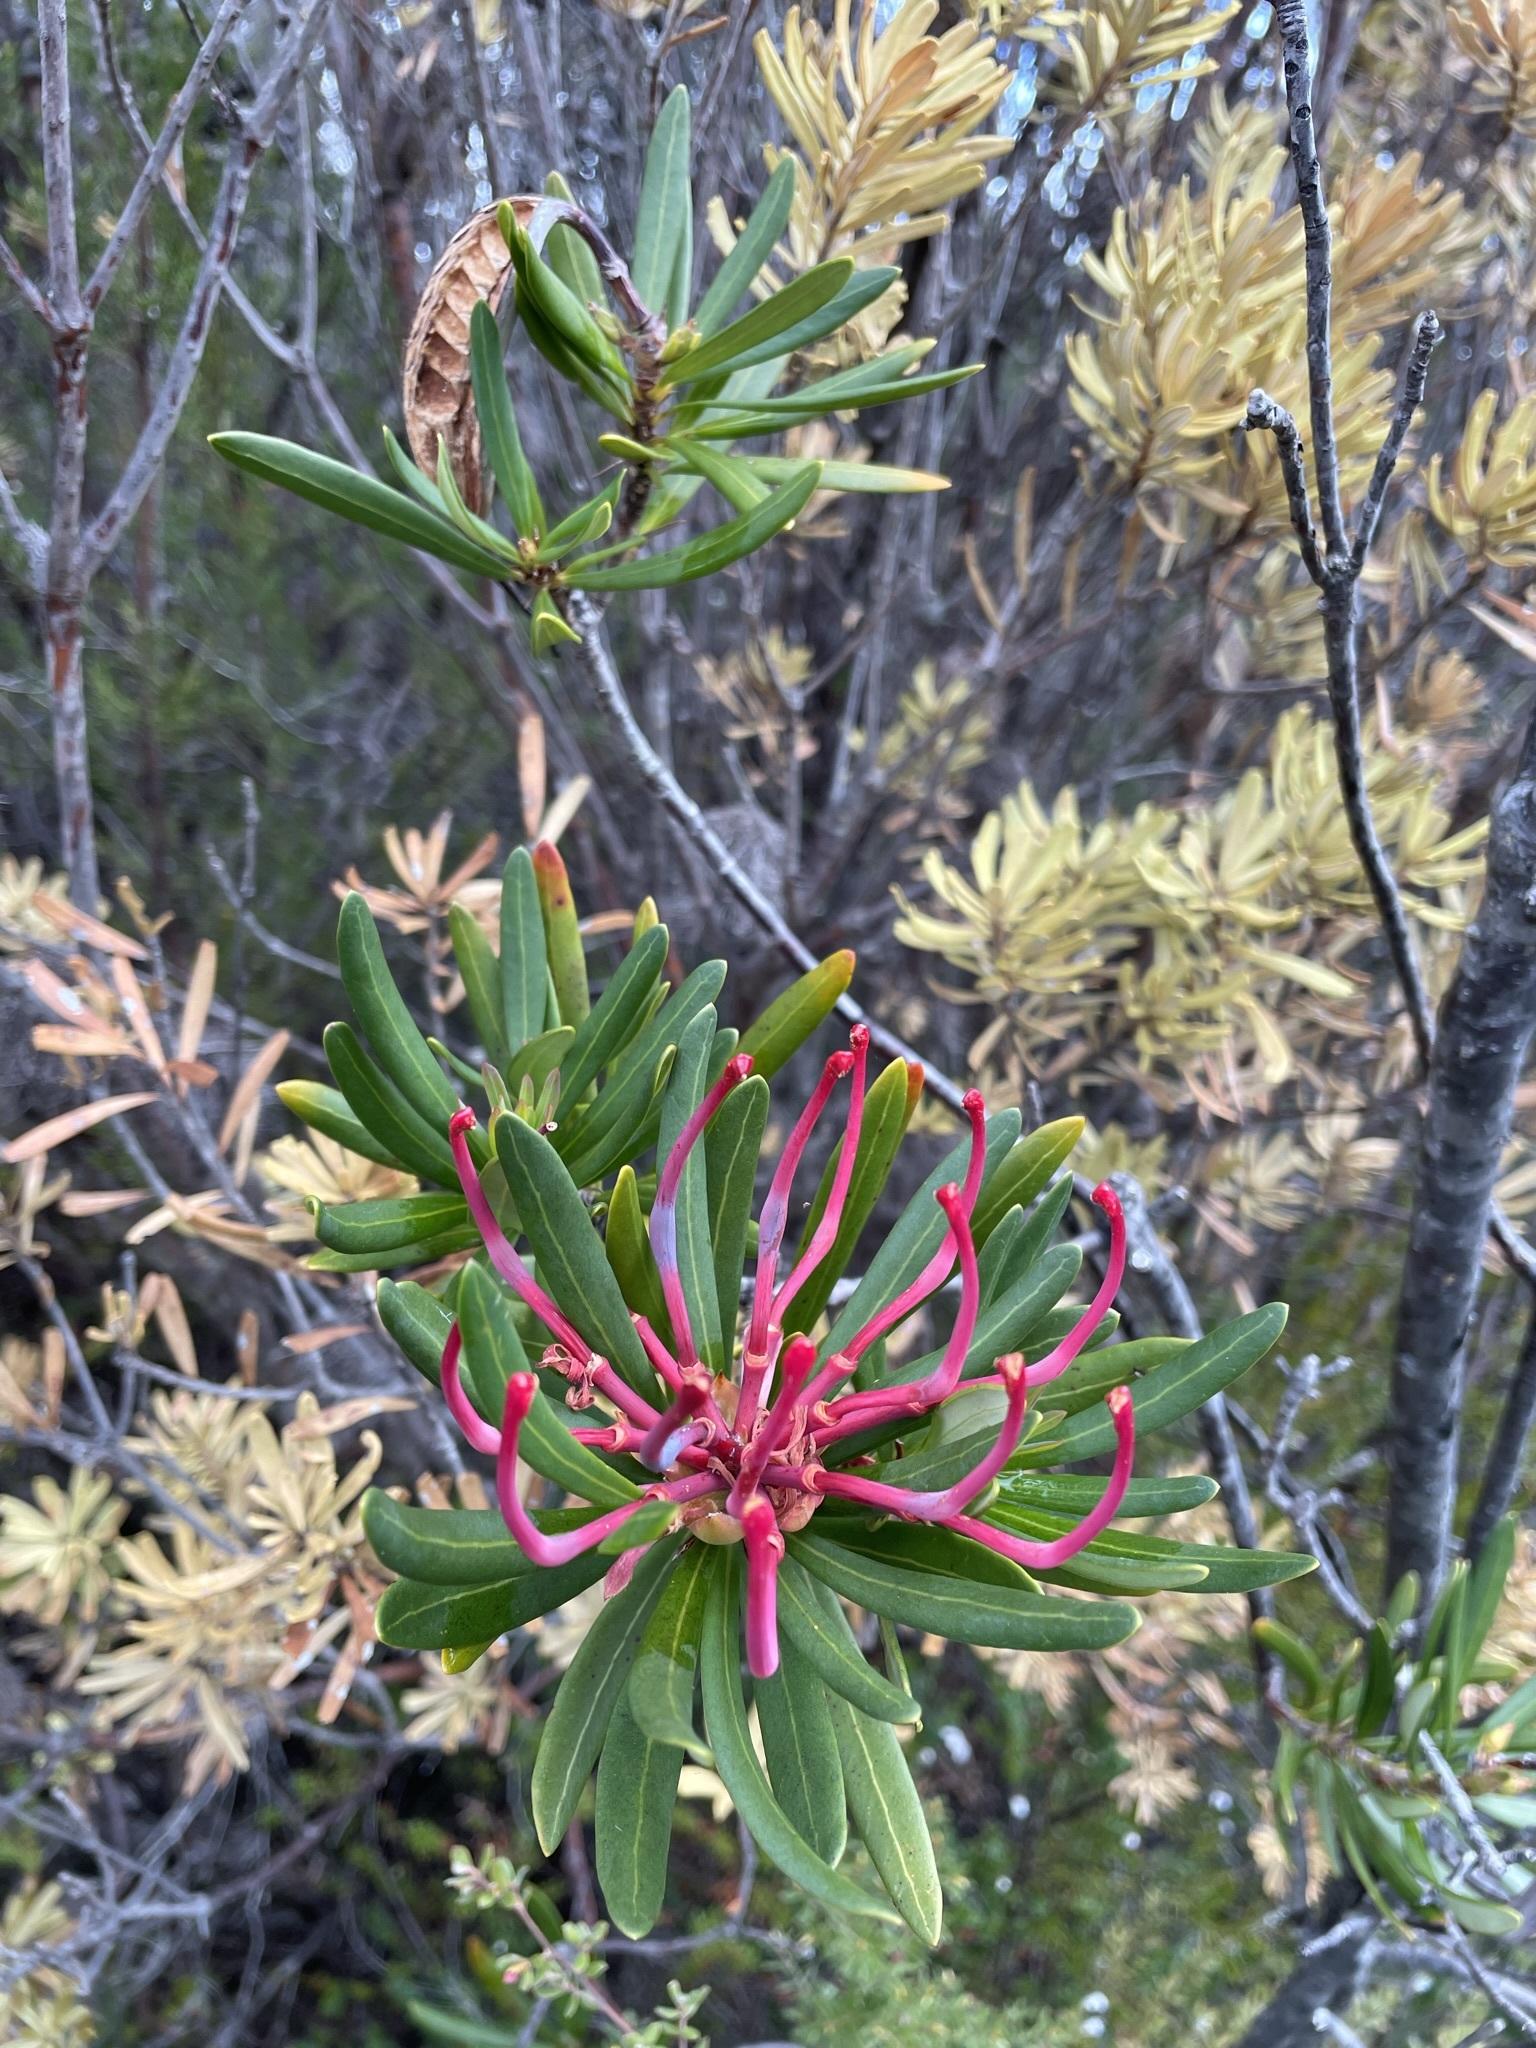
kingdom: Plantae
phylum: Tracheophyta
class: Magnoliopsida
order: Proteales
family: Proteaceae
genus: Telopea
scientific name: Telopea truncata
